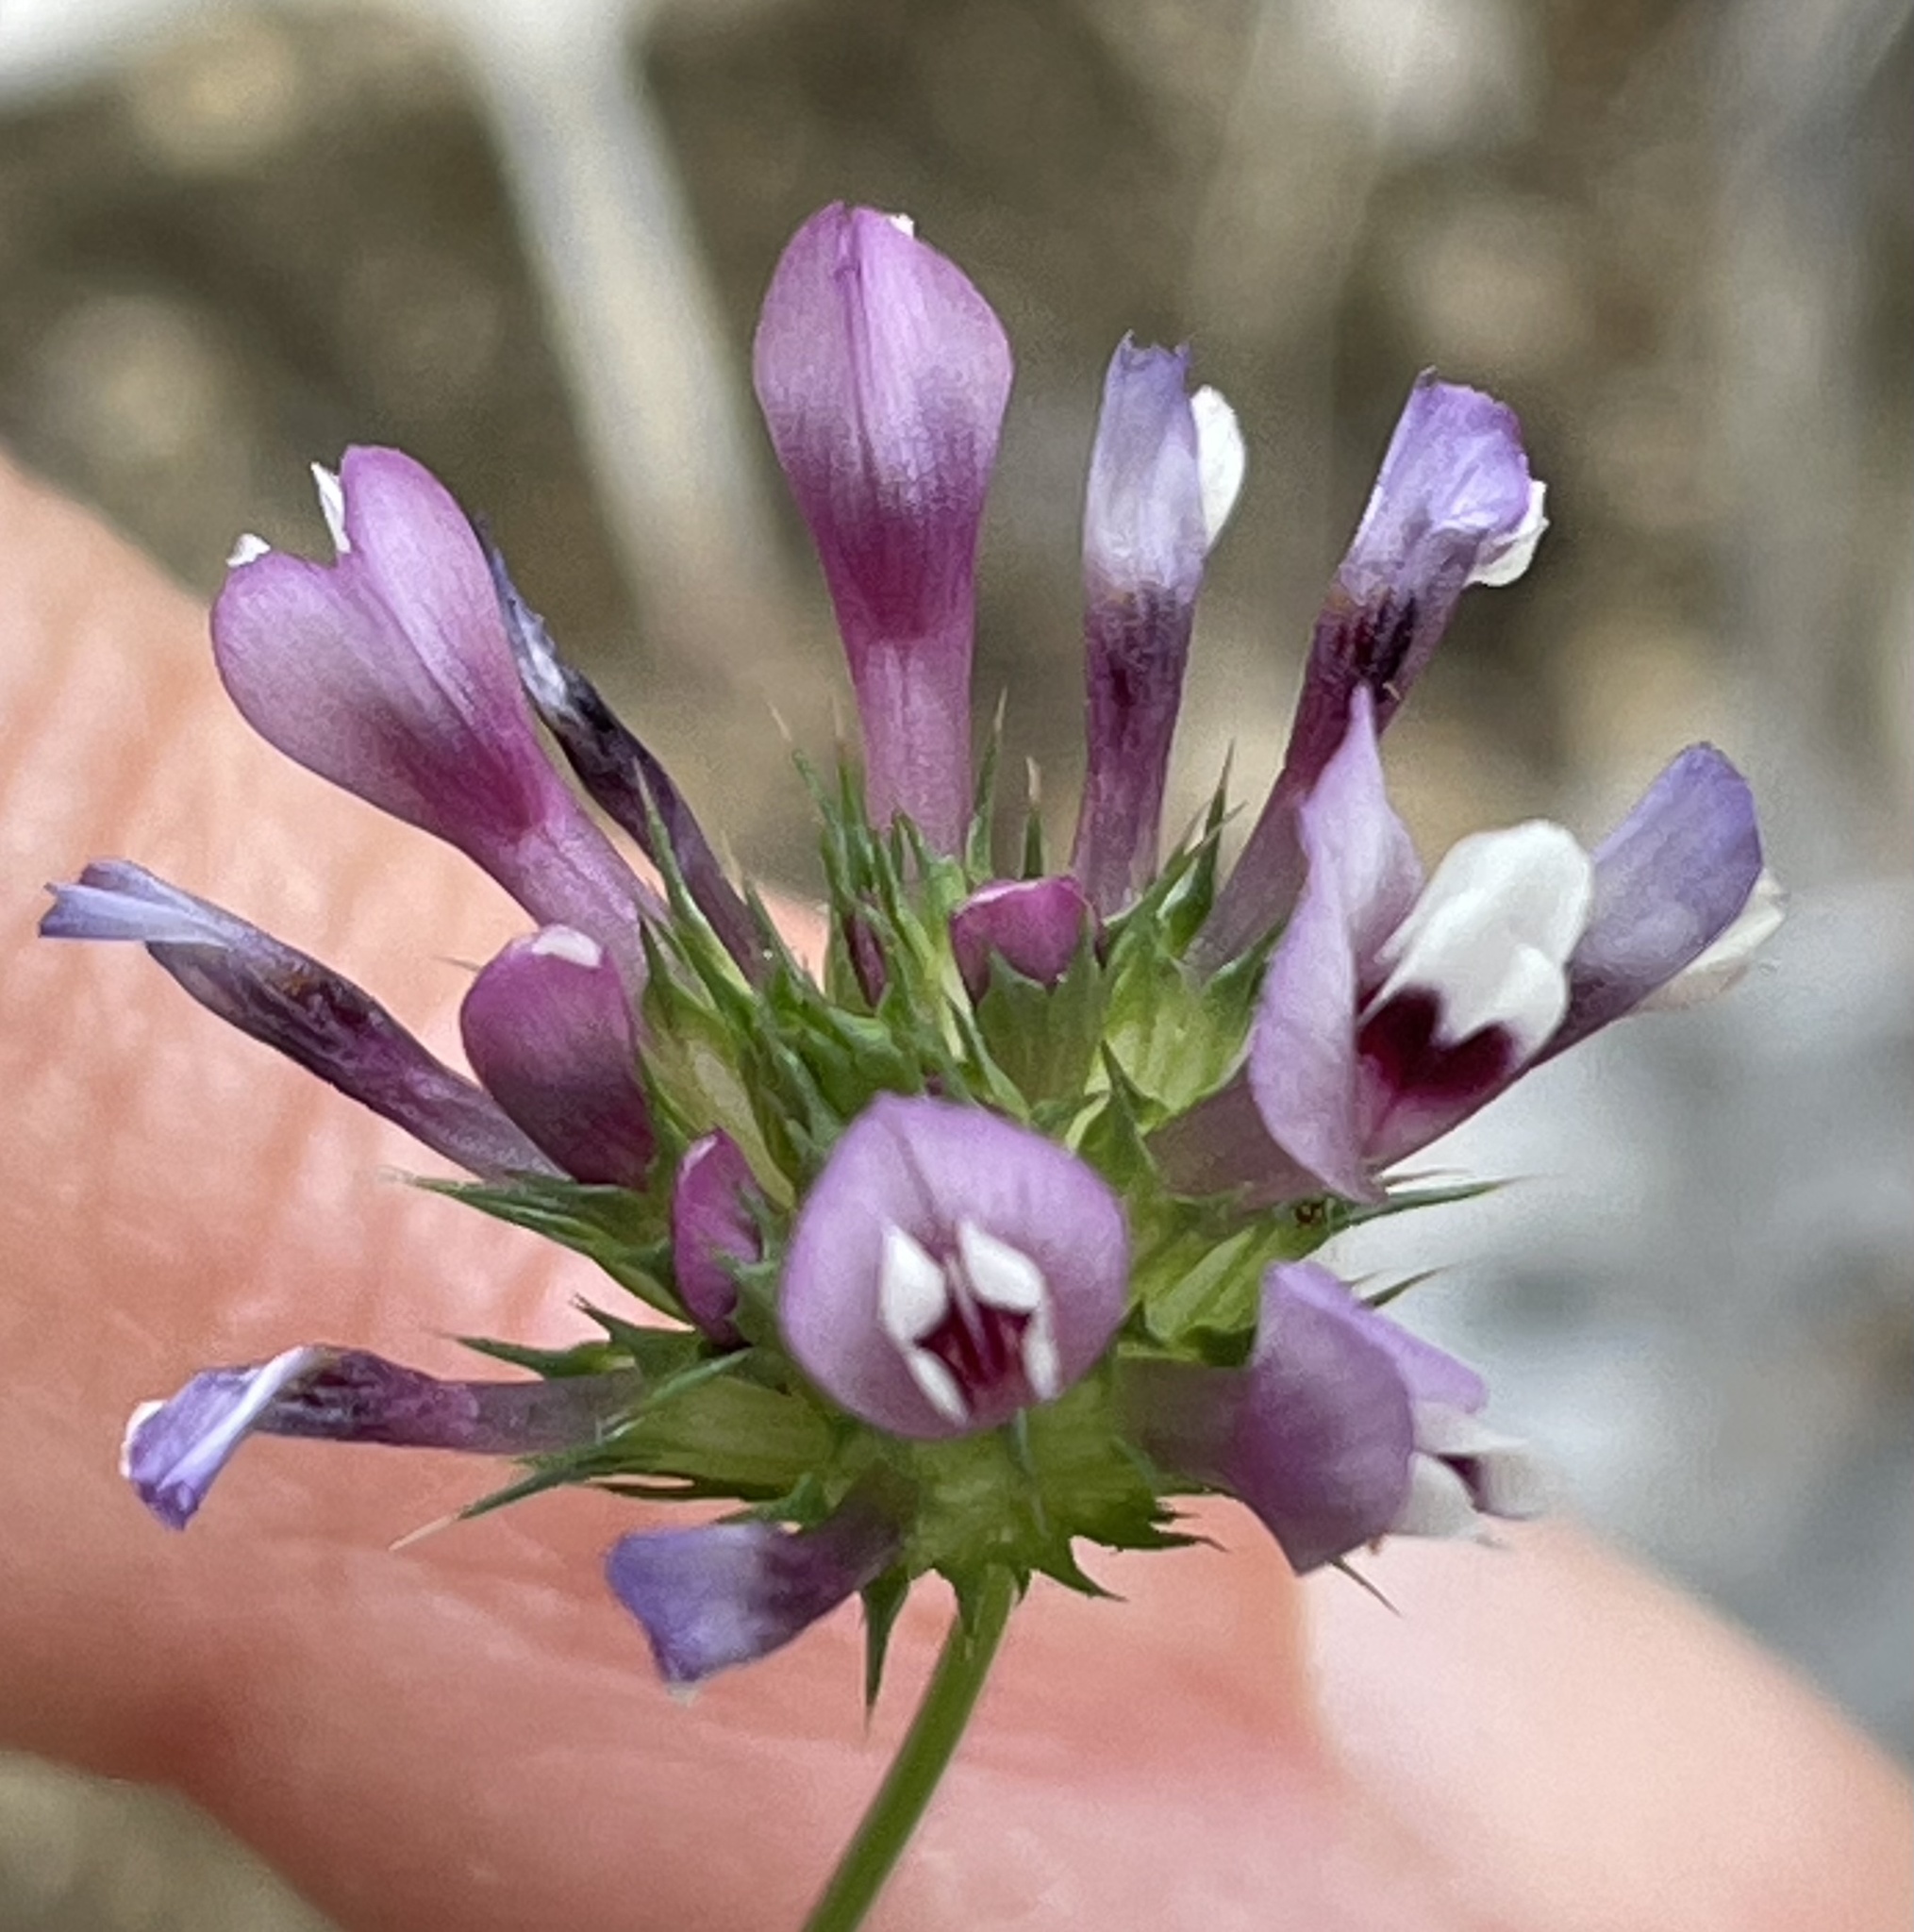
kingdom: Plantae
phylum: Tracheophyta
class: Magnoliopsida
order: Fabales
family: Fabaceae
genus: Trifolium
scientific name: Trifolium willdenovii
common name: Tomcat clover
